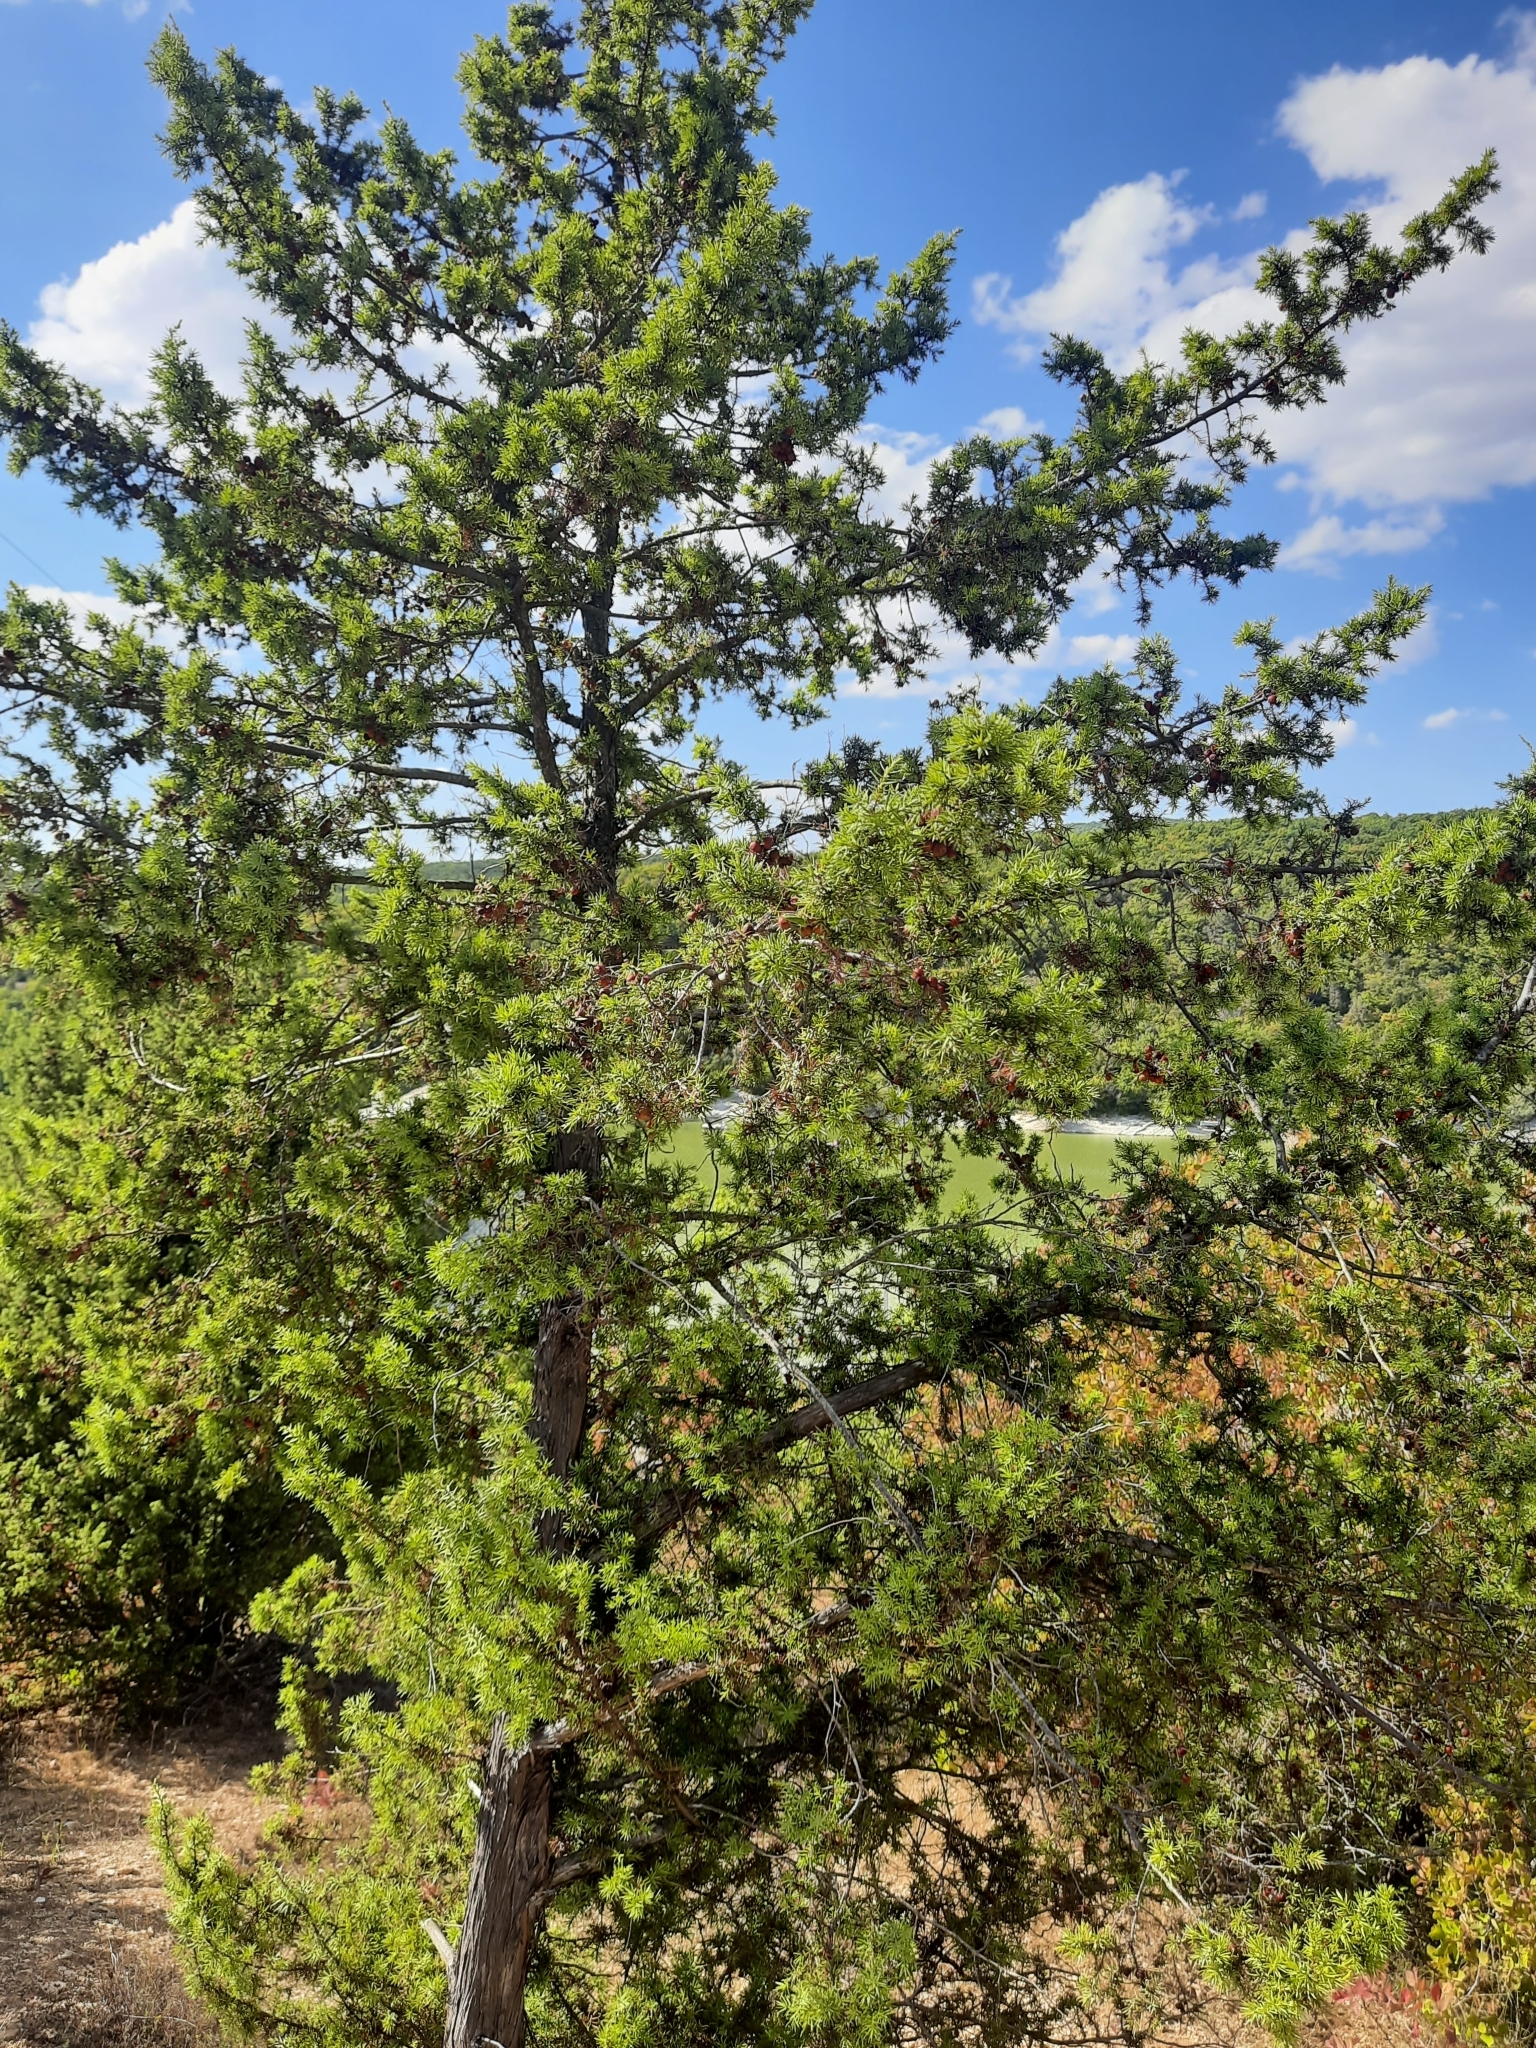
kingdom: Plantae
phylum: Tracheophyta
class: Pinopsida
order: Pinales
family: Cupressaceae
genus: Juniperus
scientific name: Juniperus oxycedrus
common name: Prickly juniper
